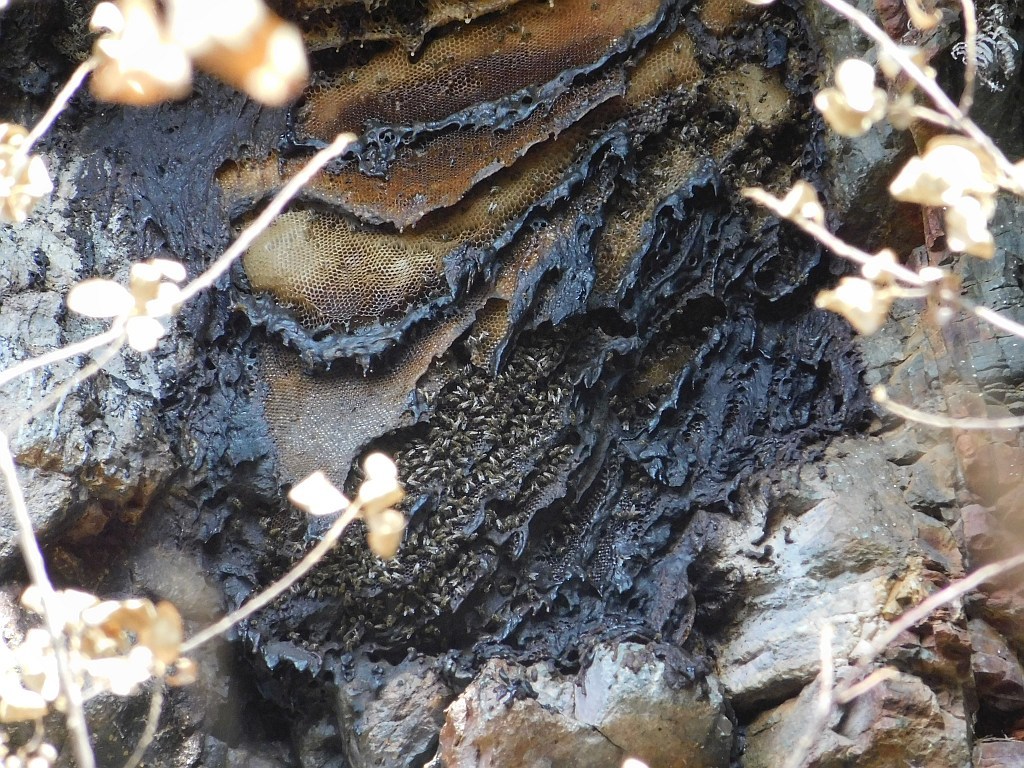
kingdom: Animalia
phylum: Arthropoda
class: Insecta
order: Hymenoptera
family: Apidae
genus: Apis
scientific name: Apis mellifera
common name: Honey bee
